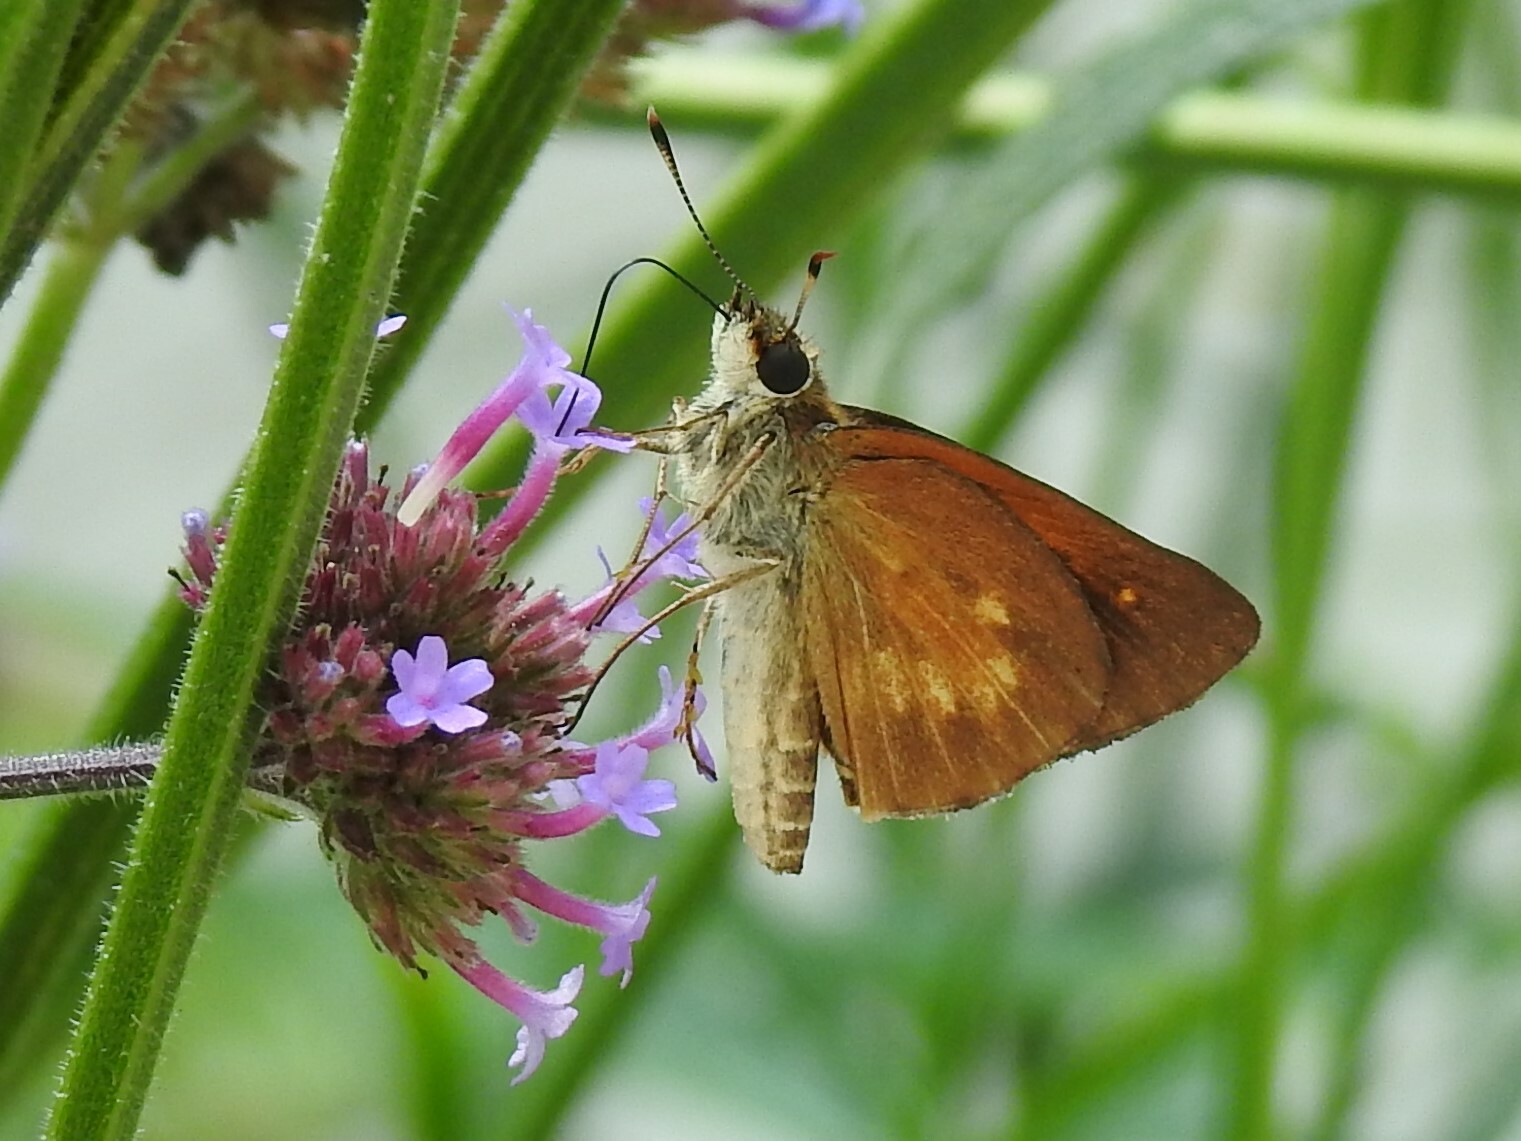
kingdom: Animalia
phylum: Arthropoda
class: Insecta
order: Lepidoptera
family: Hesperiidae
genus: Poanes
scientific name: Poanes viator
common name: Broad-winged skipper
